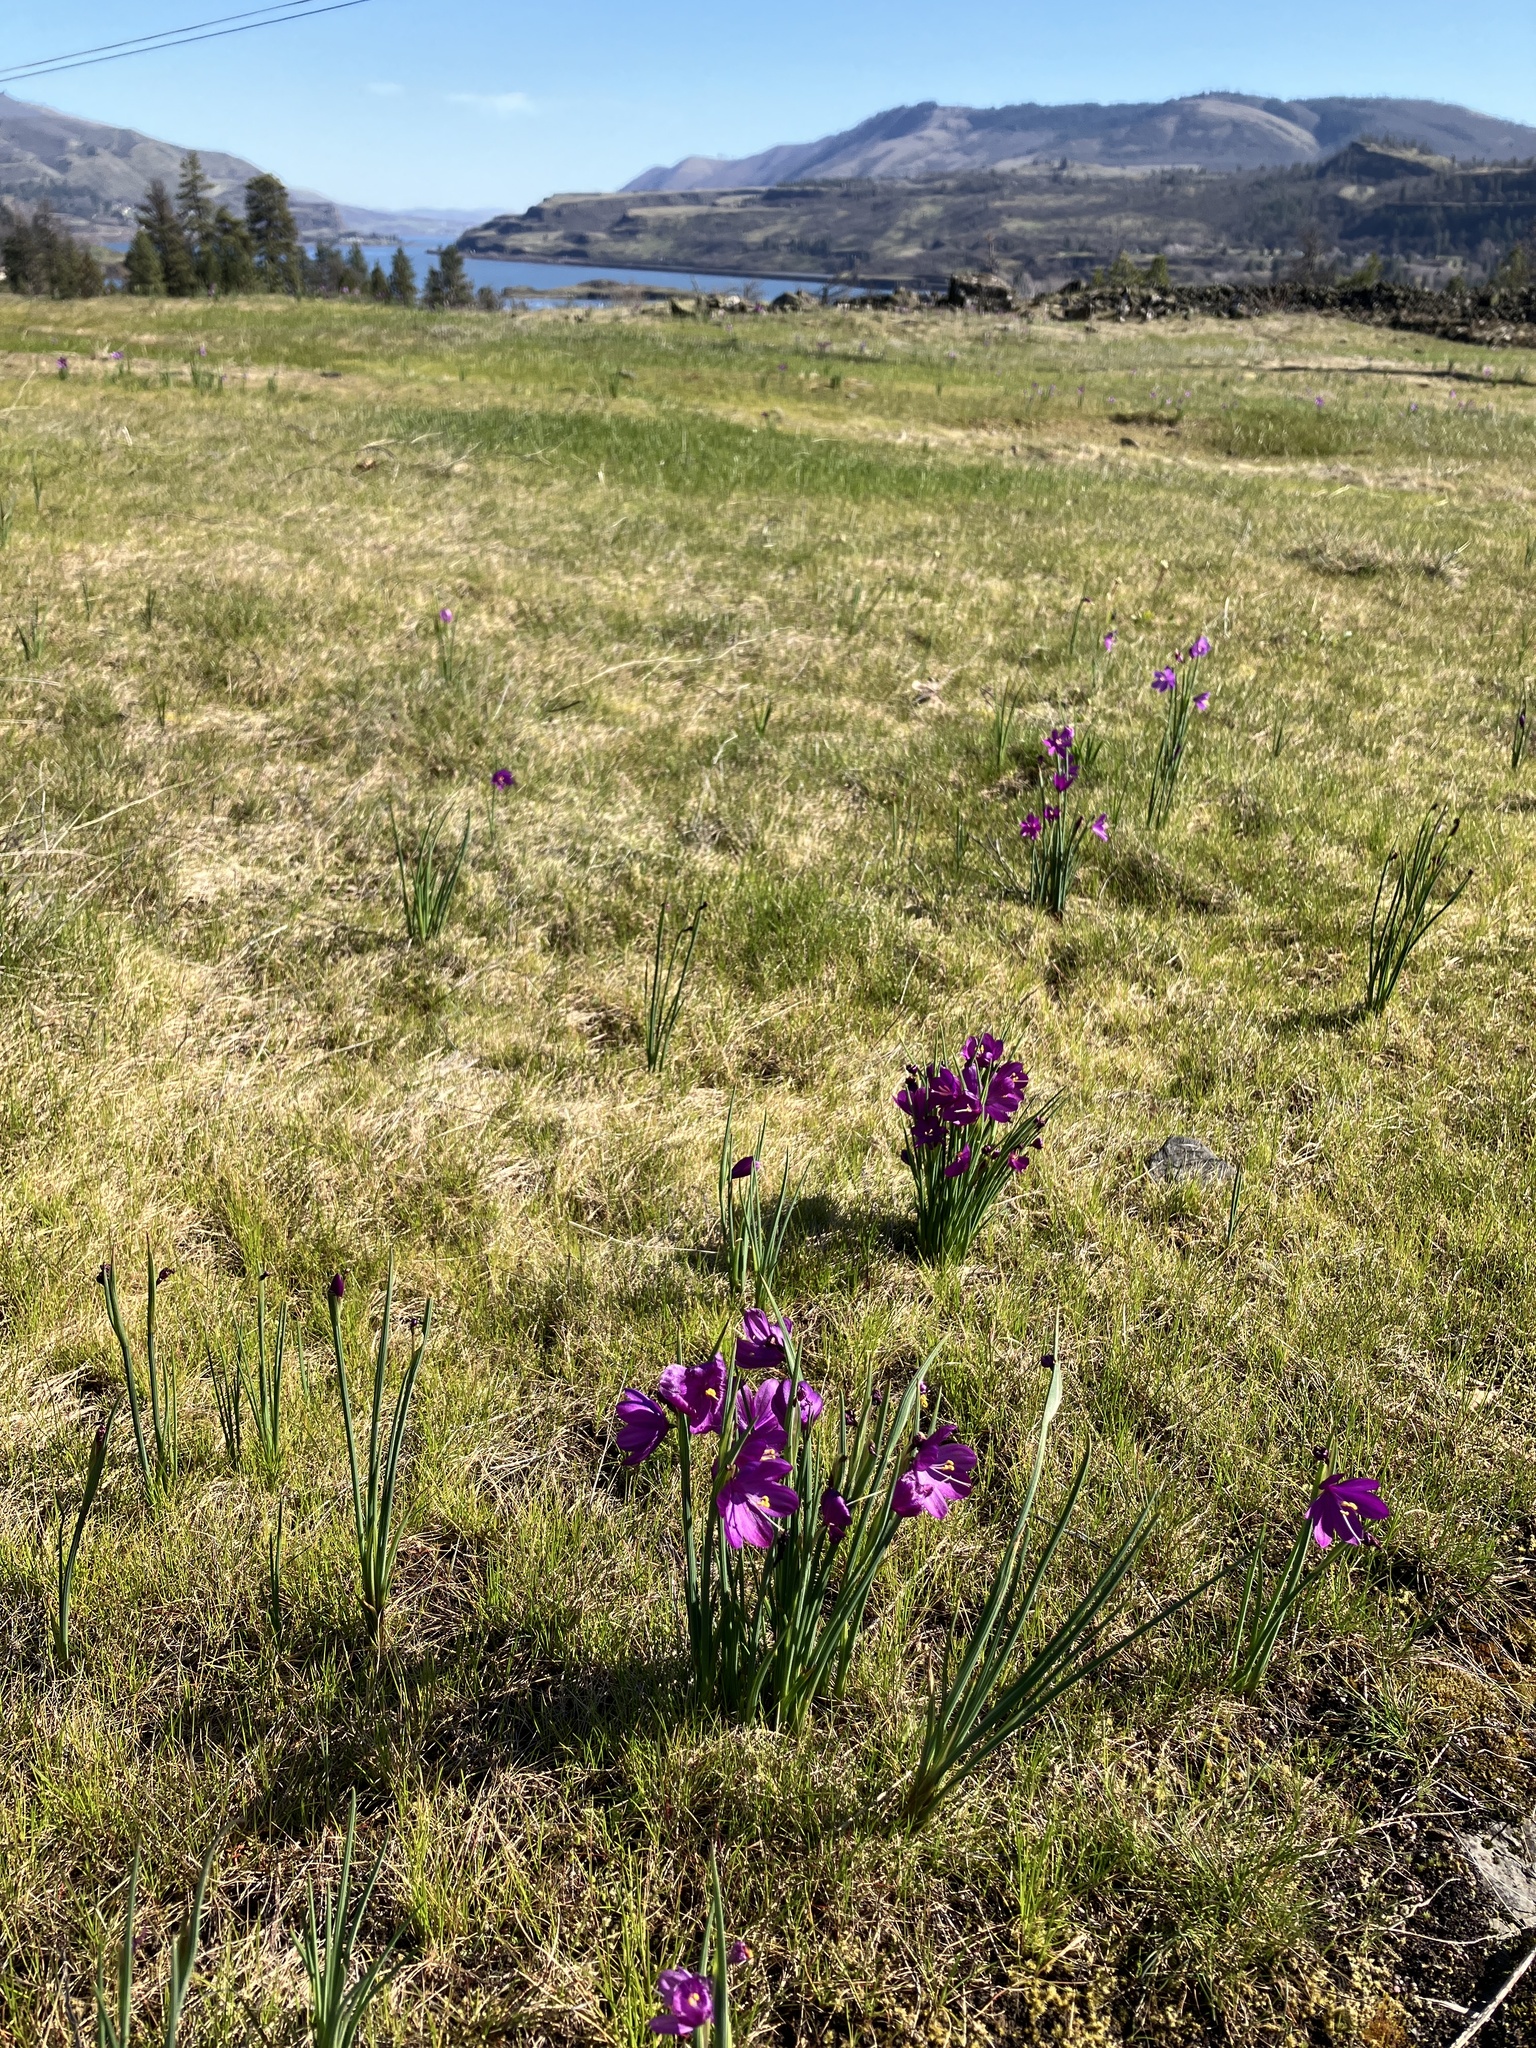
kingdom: Plantae
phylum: Tracheophyta
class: Liliopsida
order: Asparagales
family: Iridaceae
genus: Olsynium
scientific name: Olsynium douglasii
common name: Douglas' grasswidow
